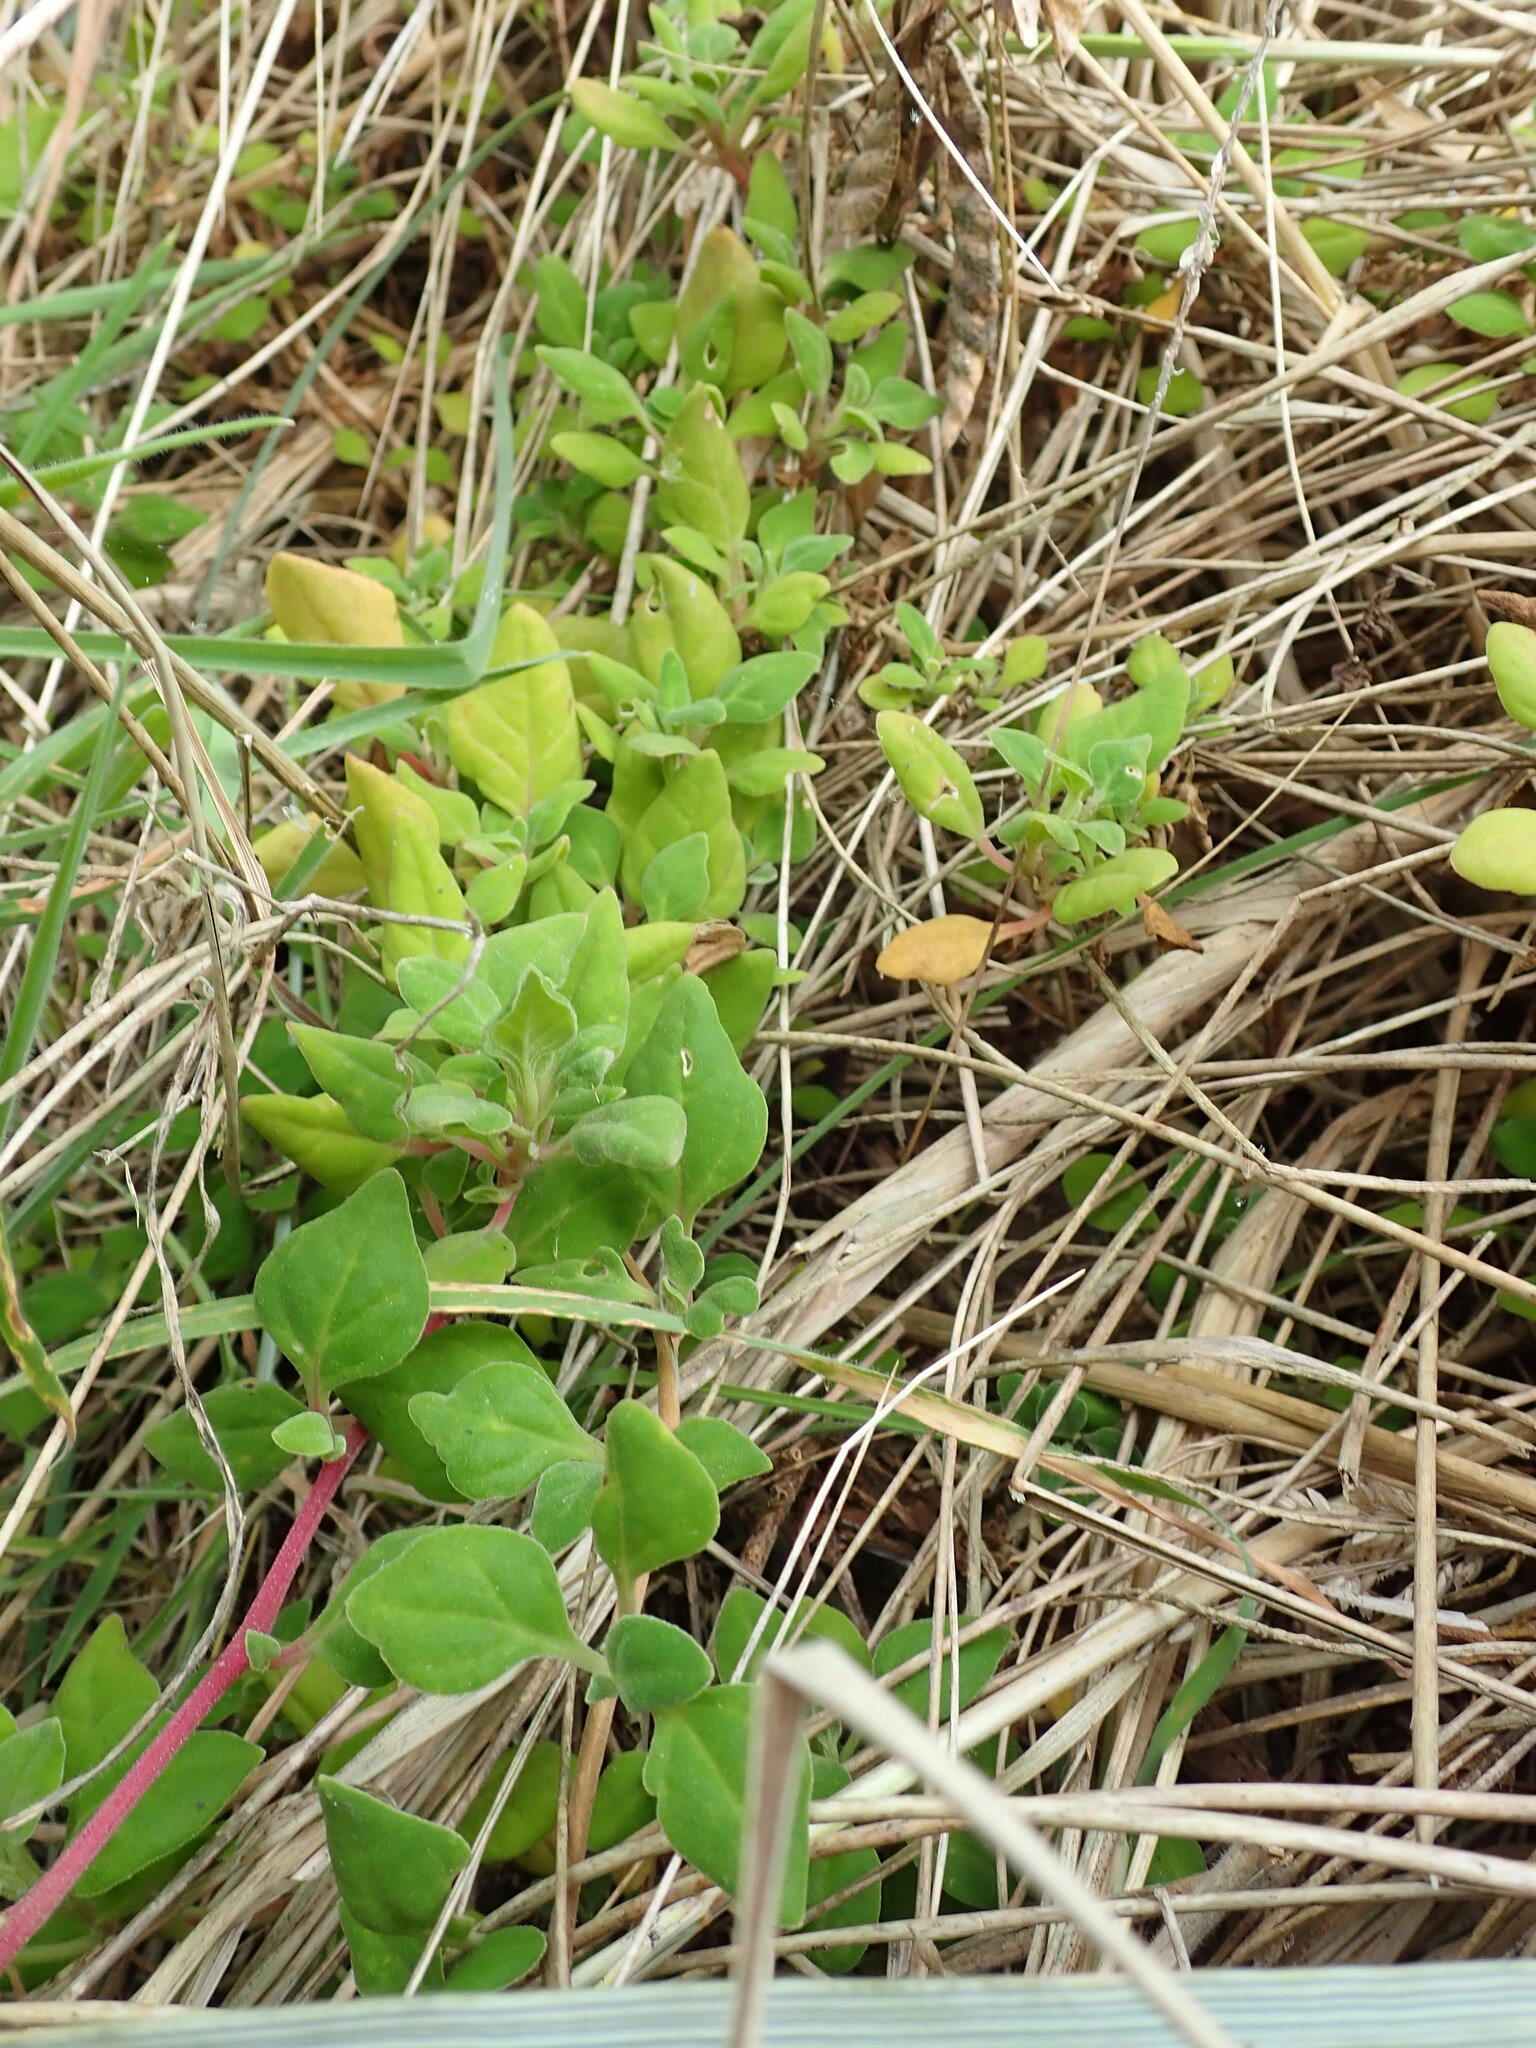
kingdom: Plantae
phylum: Tracheophyta
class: Magnoliopsida
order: Caryophyllales
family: Aizoaceae
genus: Tetragonia
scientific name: Tetragonia implexicoma
